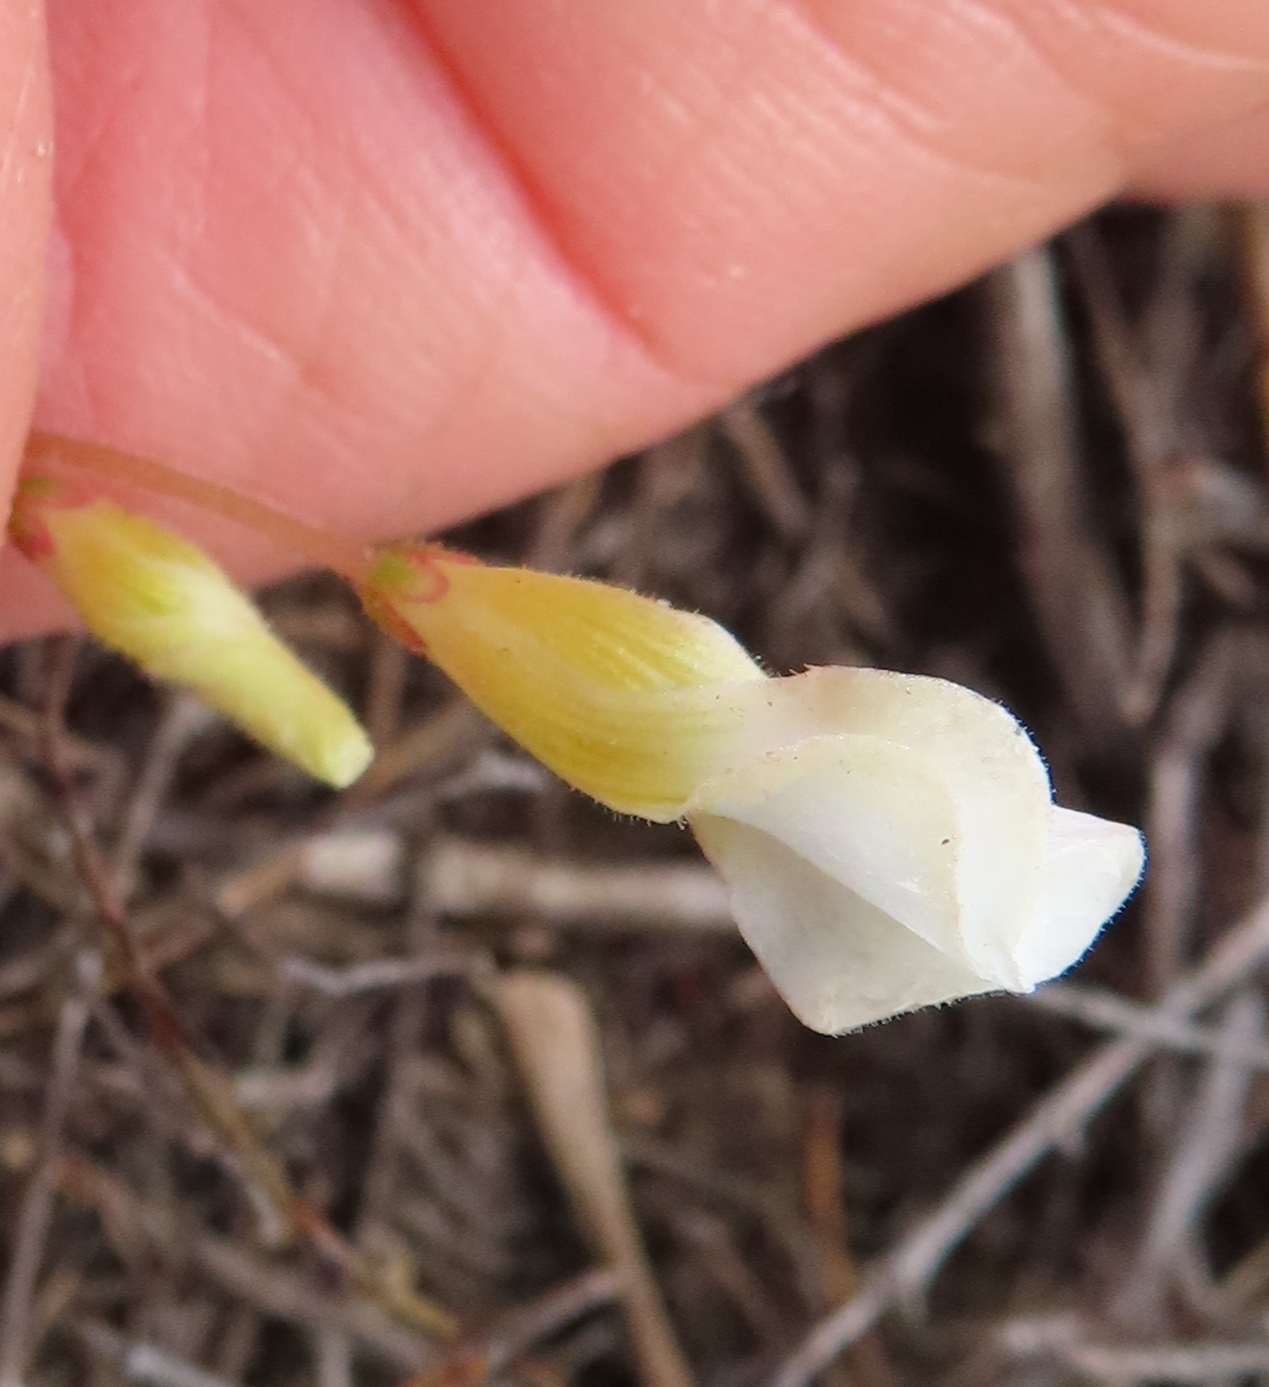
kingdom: Plantae
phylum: Tracheophyta
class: Magnoliopsida
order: Oxalidales
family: Oxalidaceae
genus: Oxalis
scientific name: Oxalis punctata
